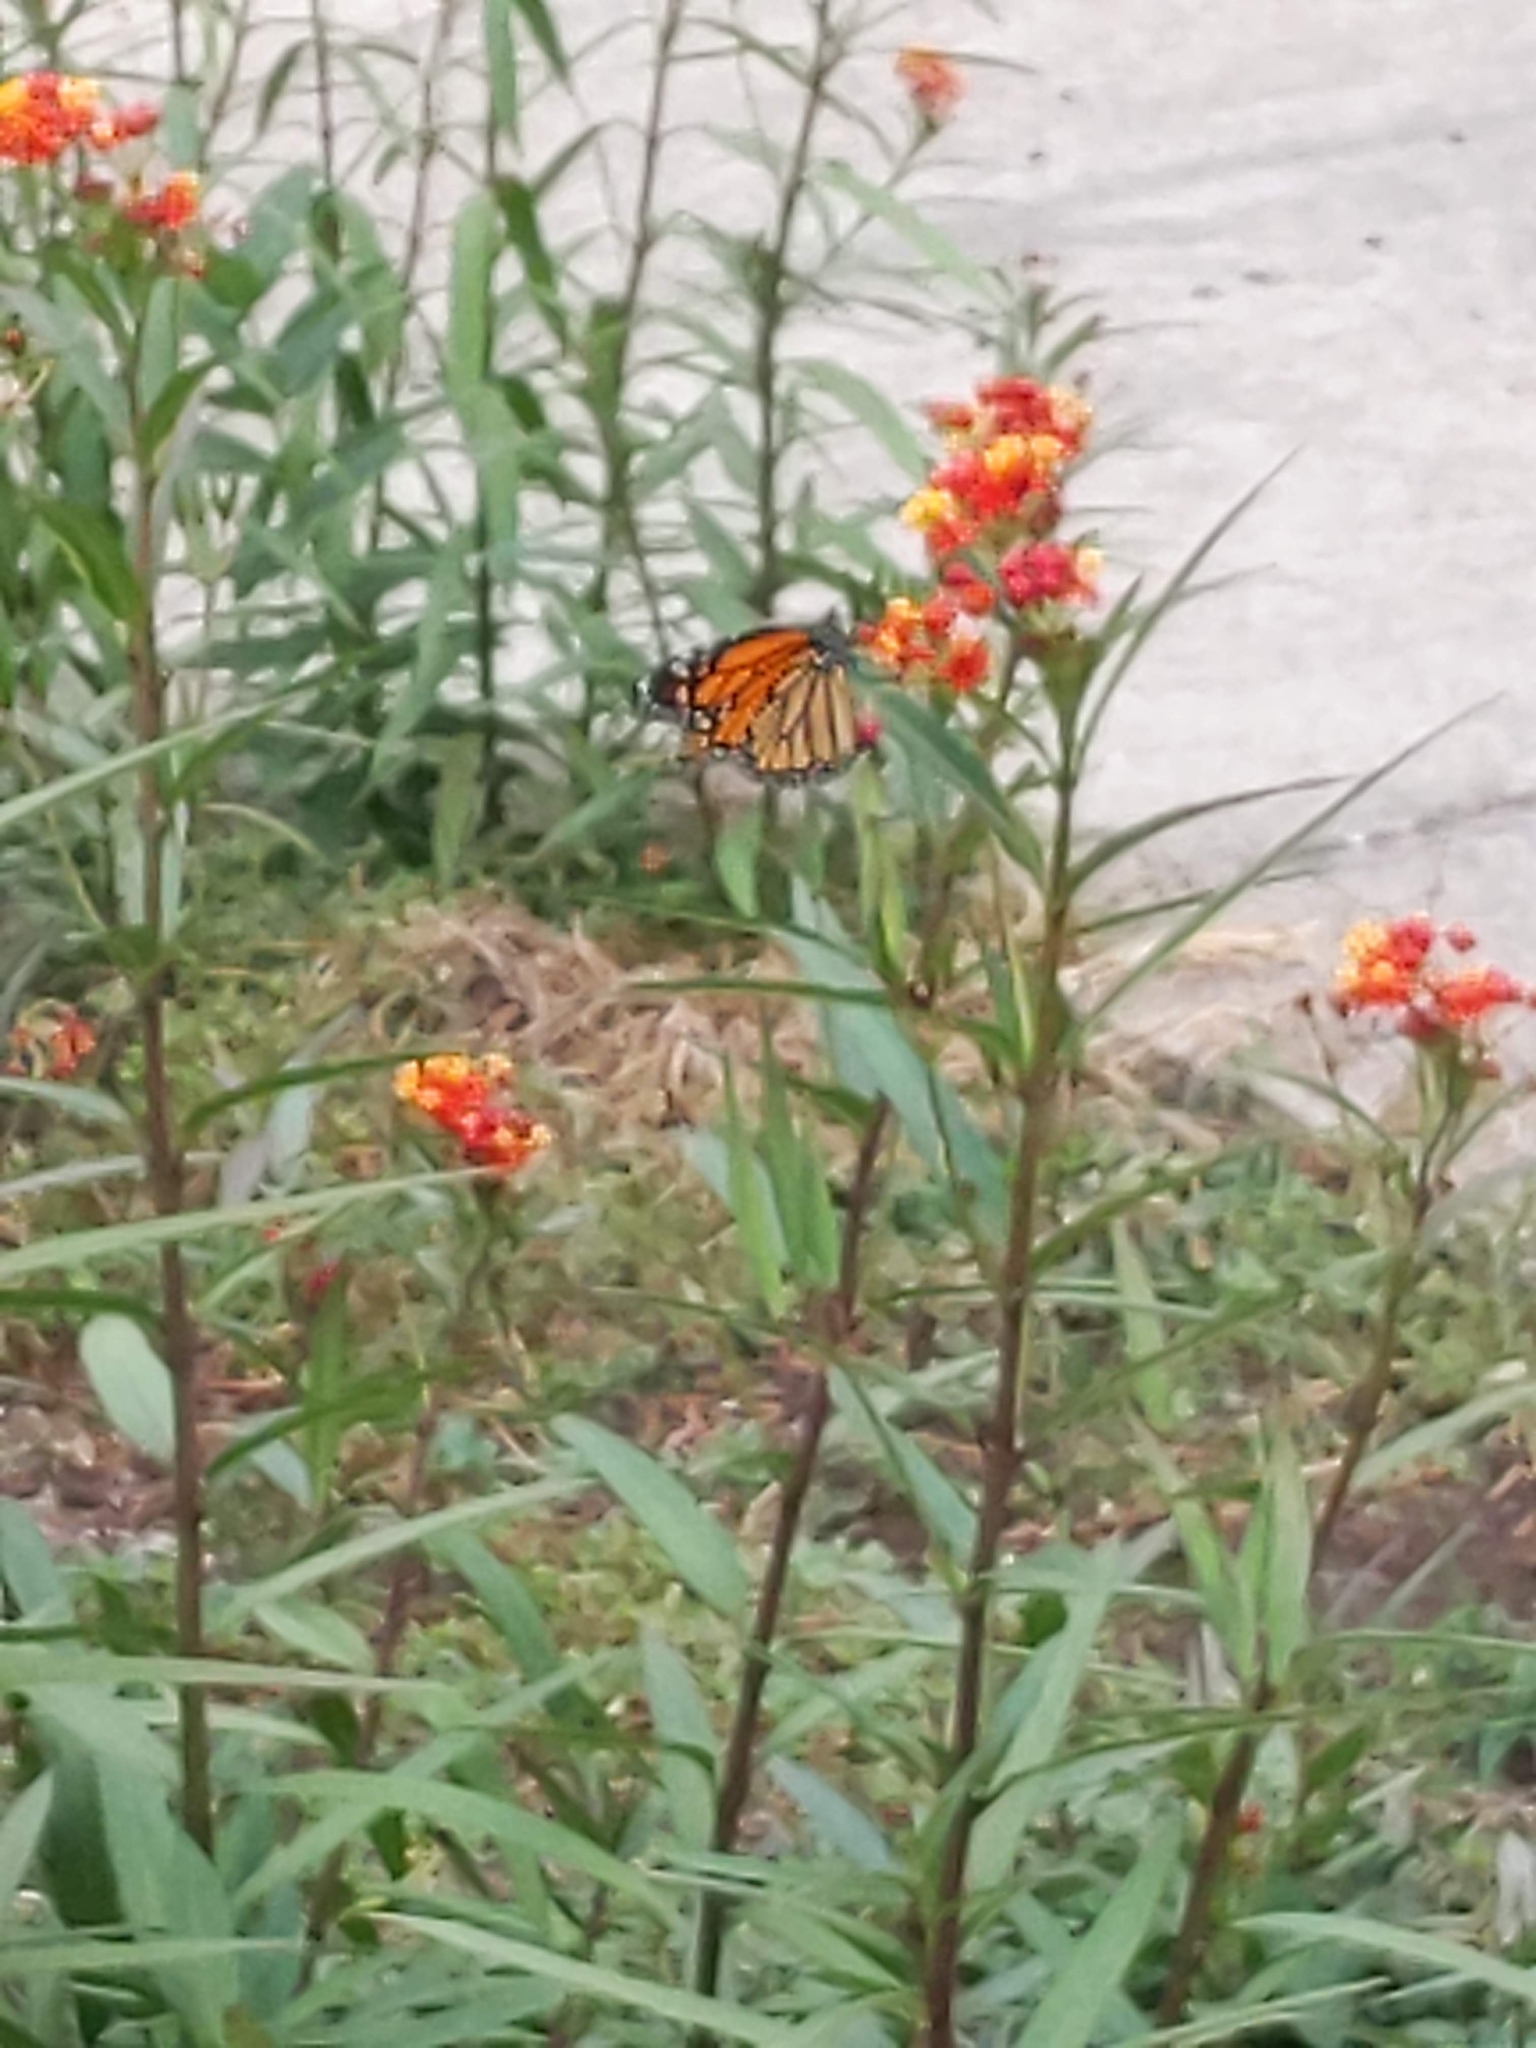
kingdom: Animalia
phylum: Arthropoda
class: Insecta
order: Lepidoptera
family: Nymphalidae
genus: Danaus
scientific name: Danaus plexippus
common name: Monarch
